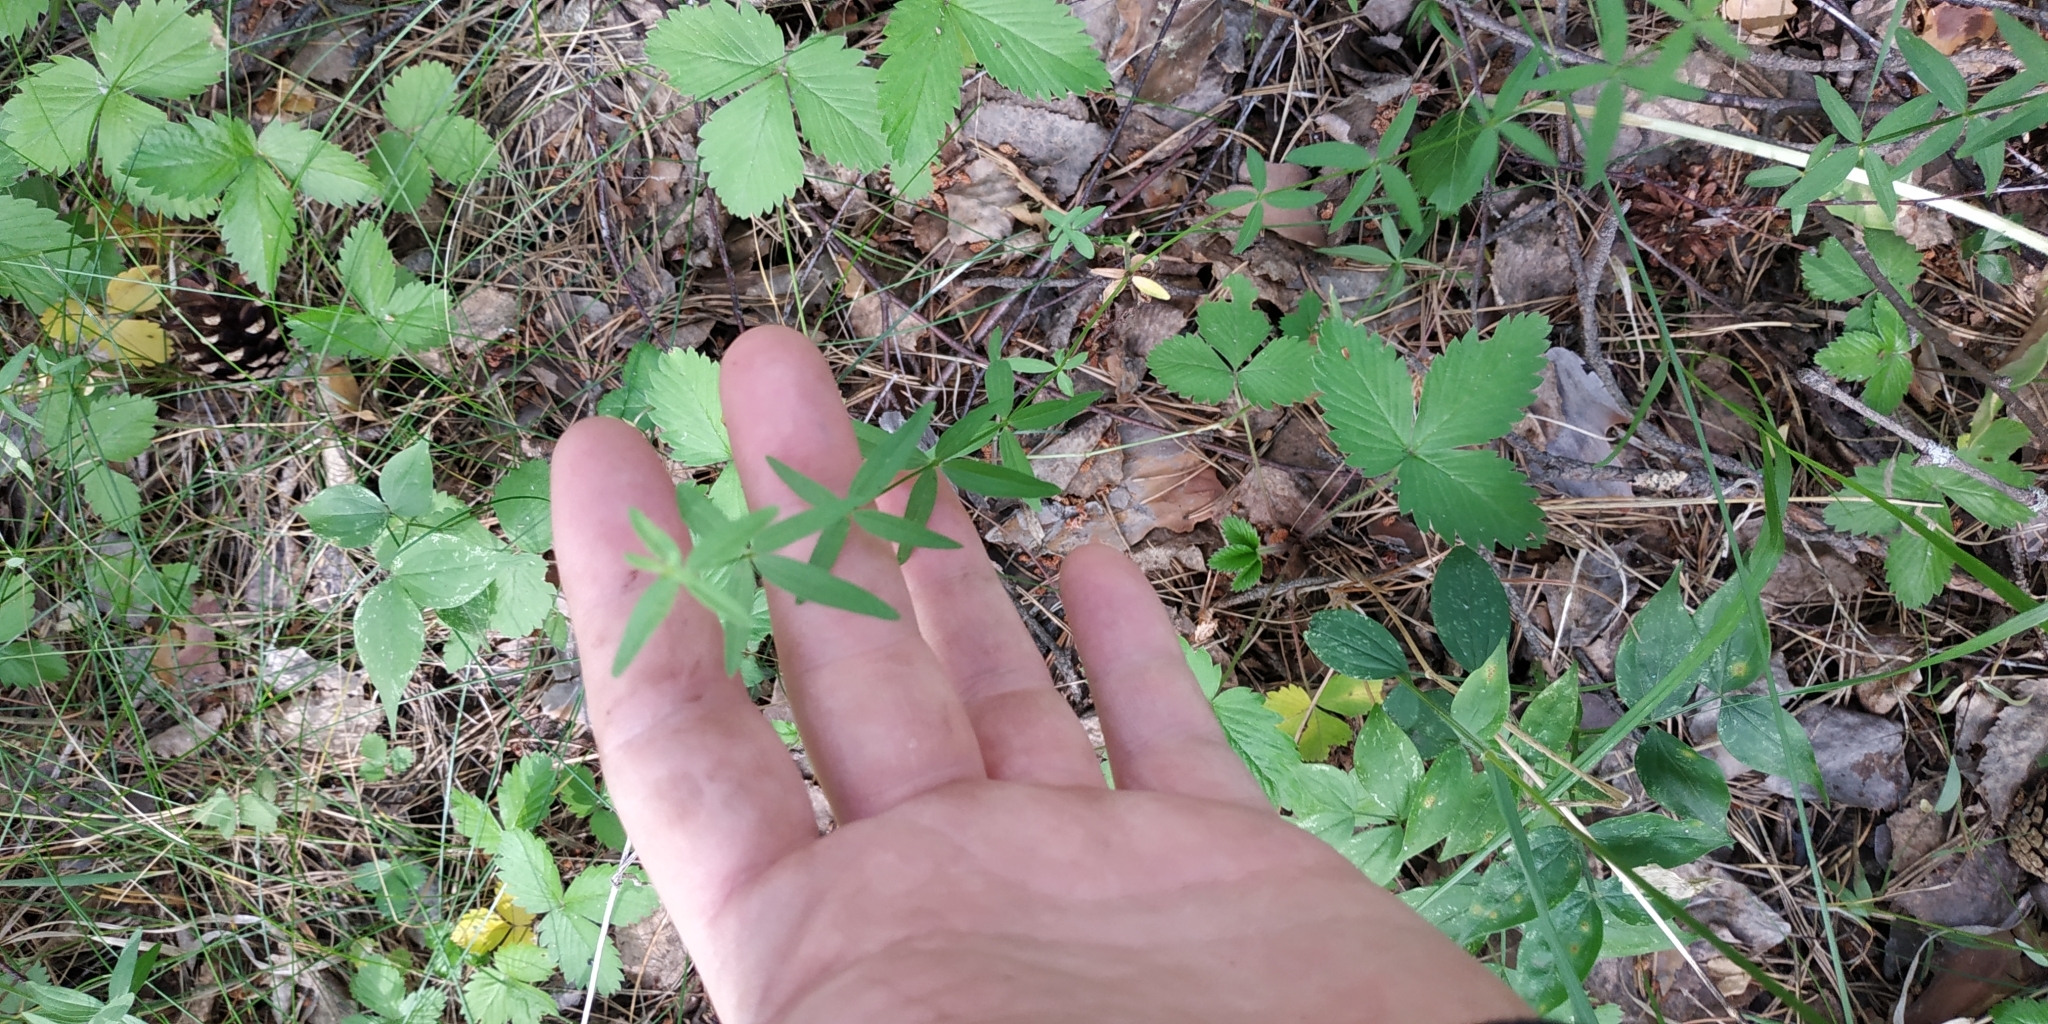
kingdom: Plantae
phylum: Tracheophyta
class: Magnoliopsida
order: Gentianales
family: Rubiaceae
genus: Galium
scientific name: Galium boreale
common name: Northern bedstraw
